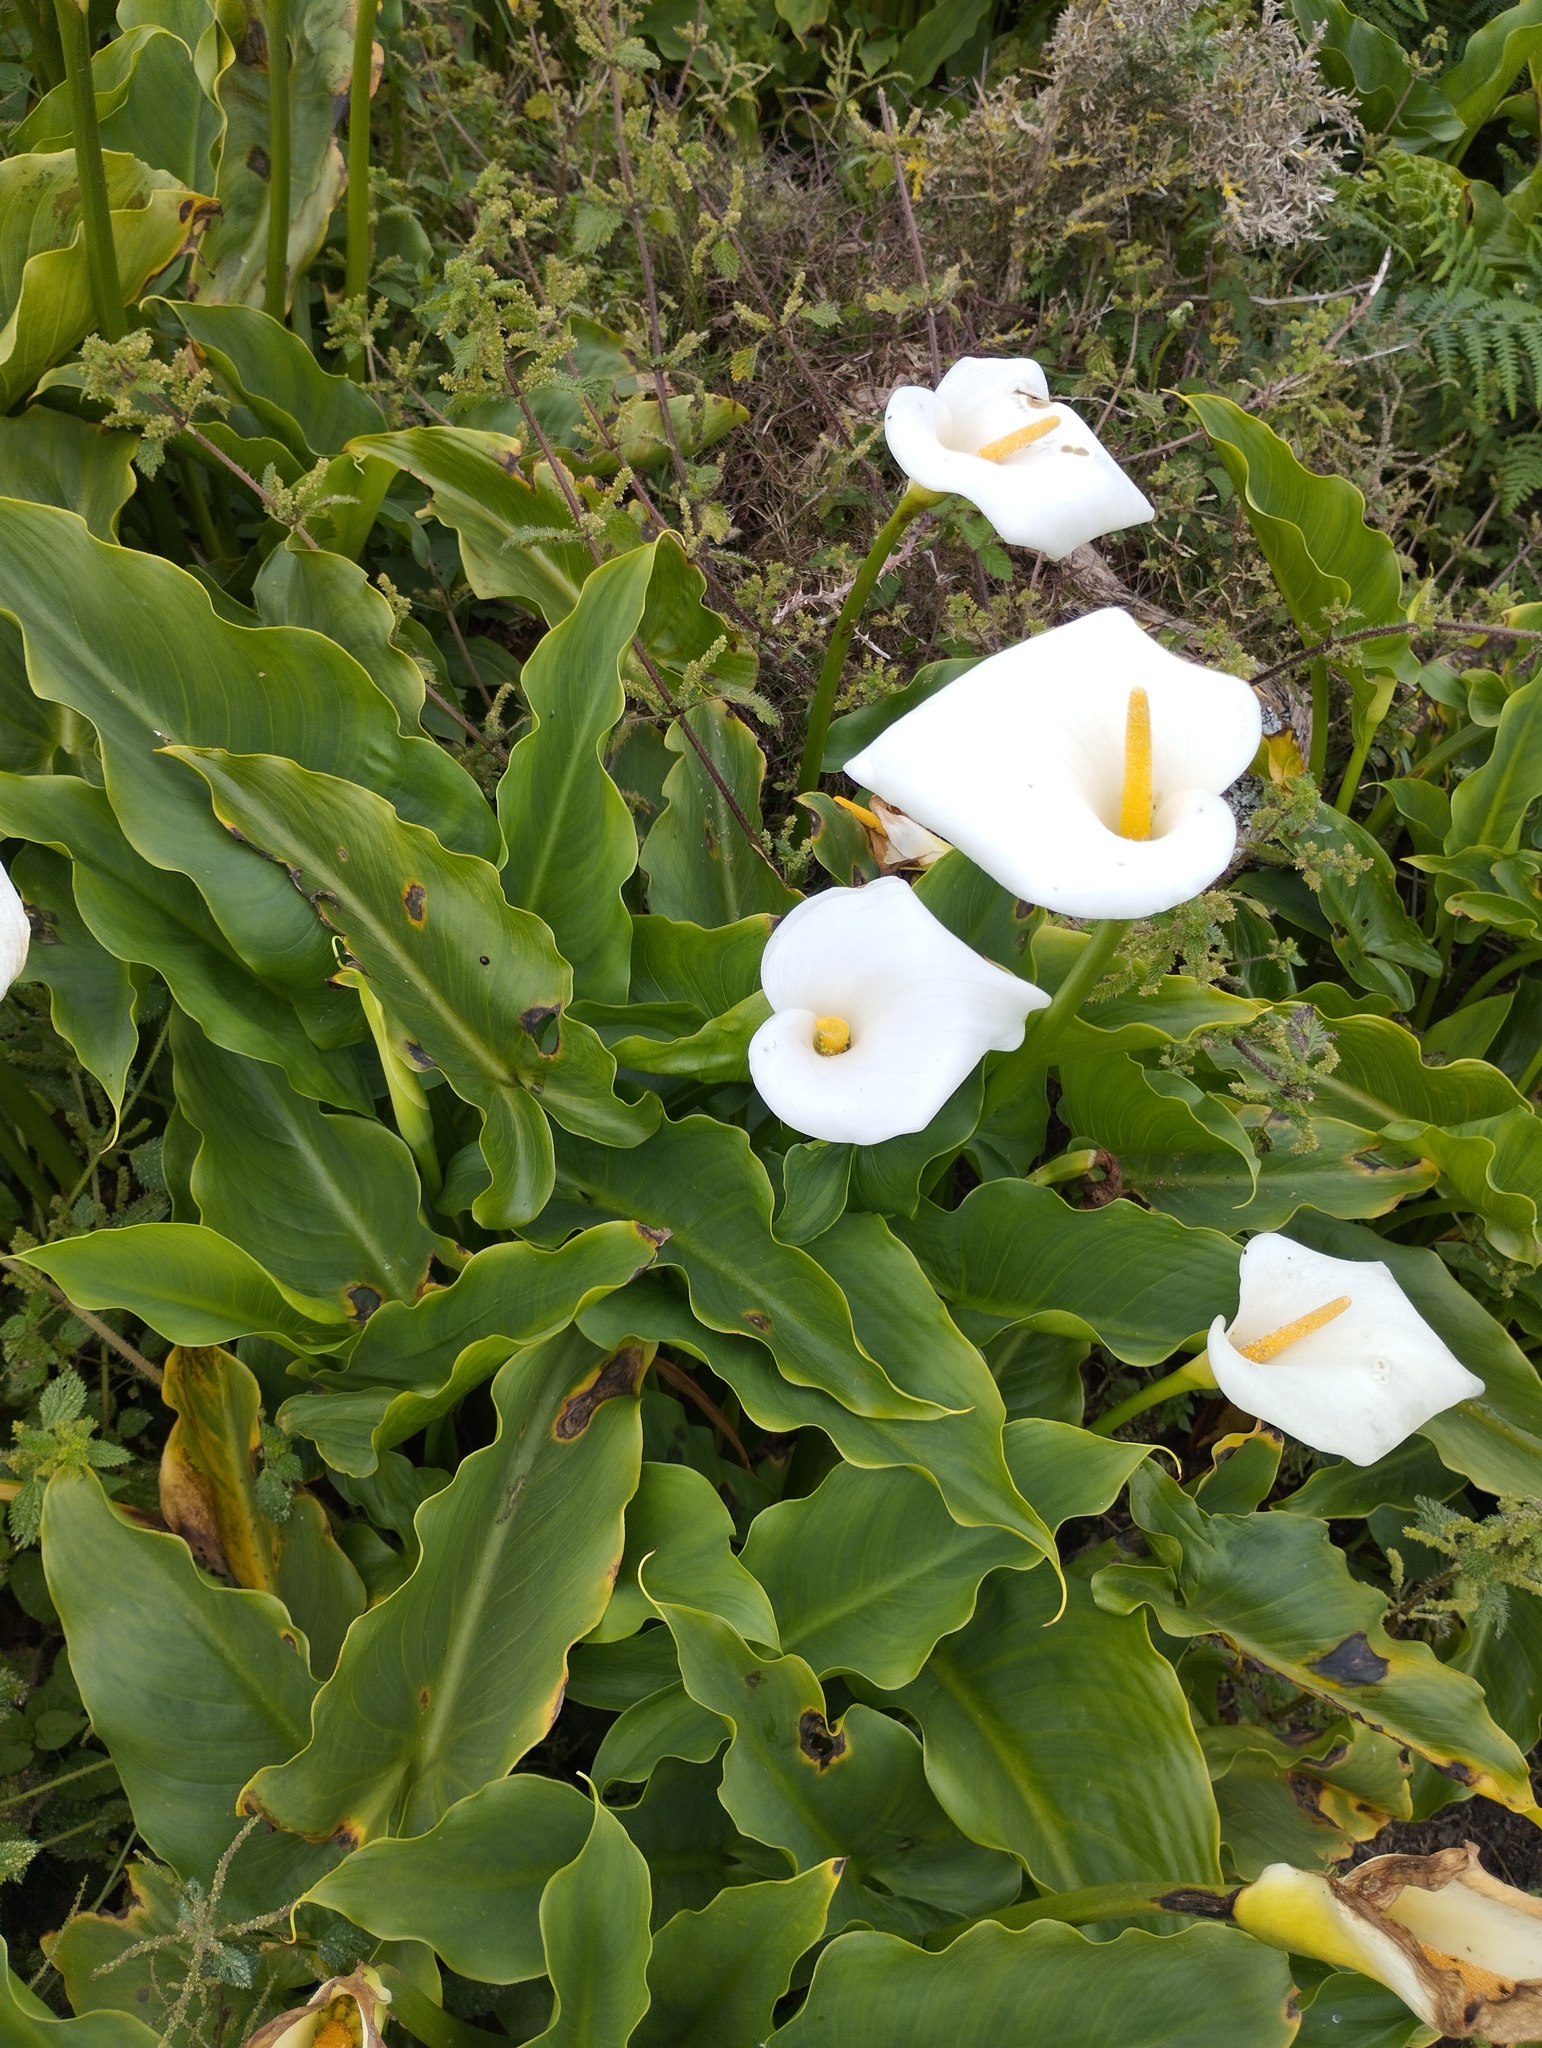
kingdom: Plantae
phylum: Tracheophyta
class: Liliopsida
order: Alismatales
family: Araceae
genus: Zantedeschia
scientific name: Zantedeschia aethiopica
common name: Altar-lily
